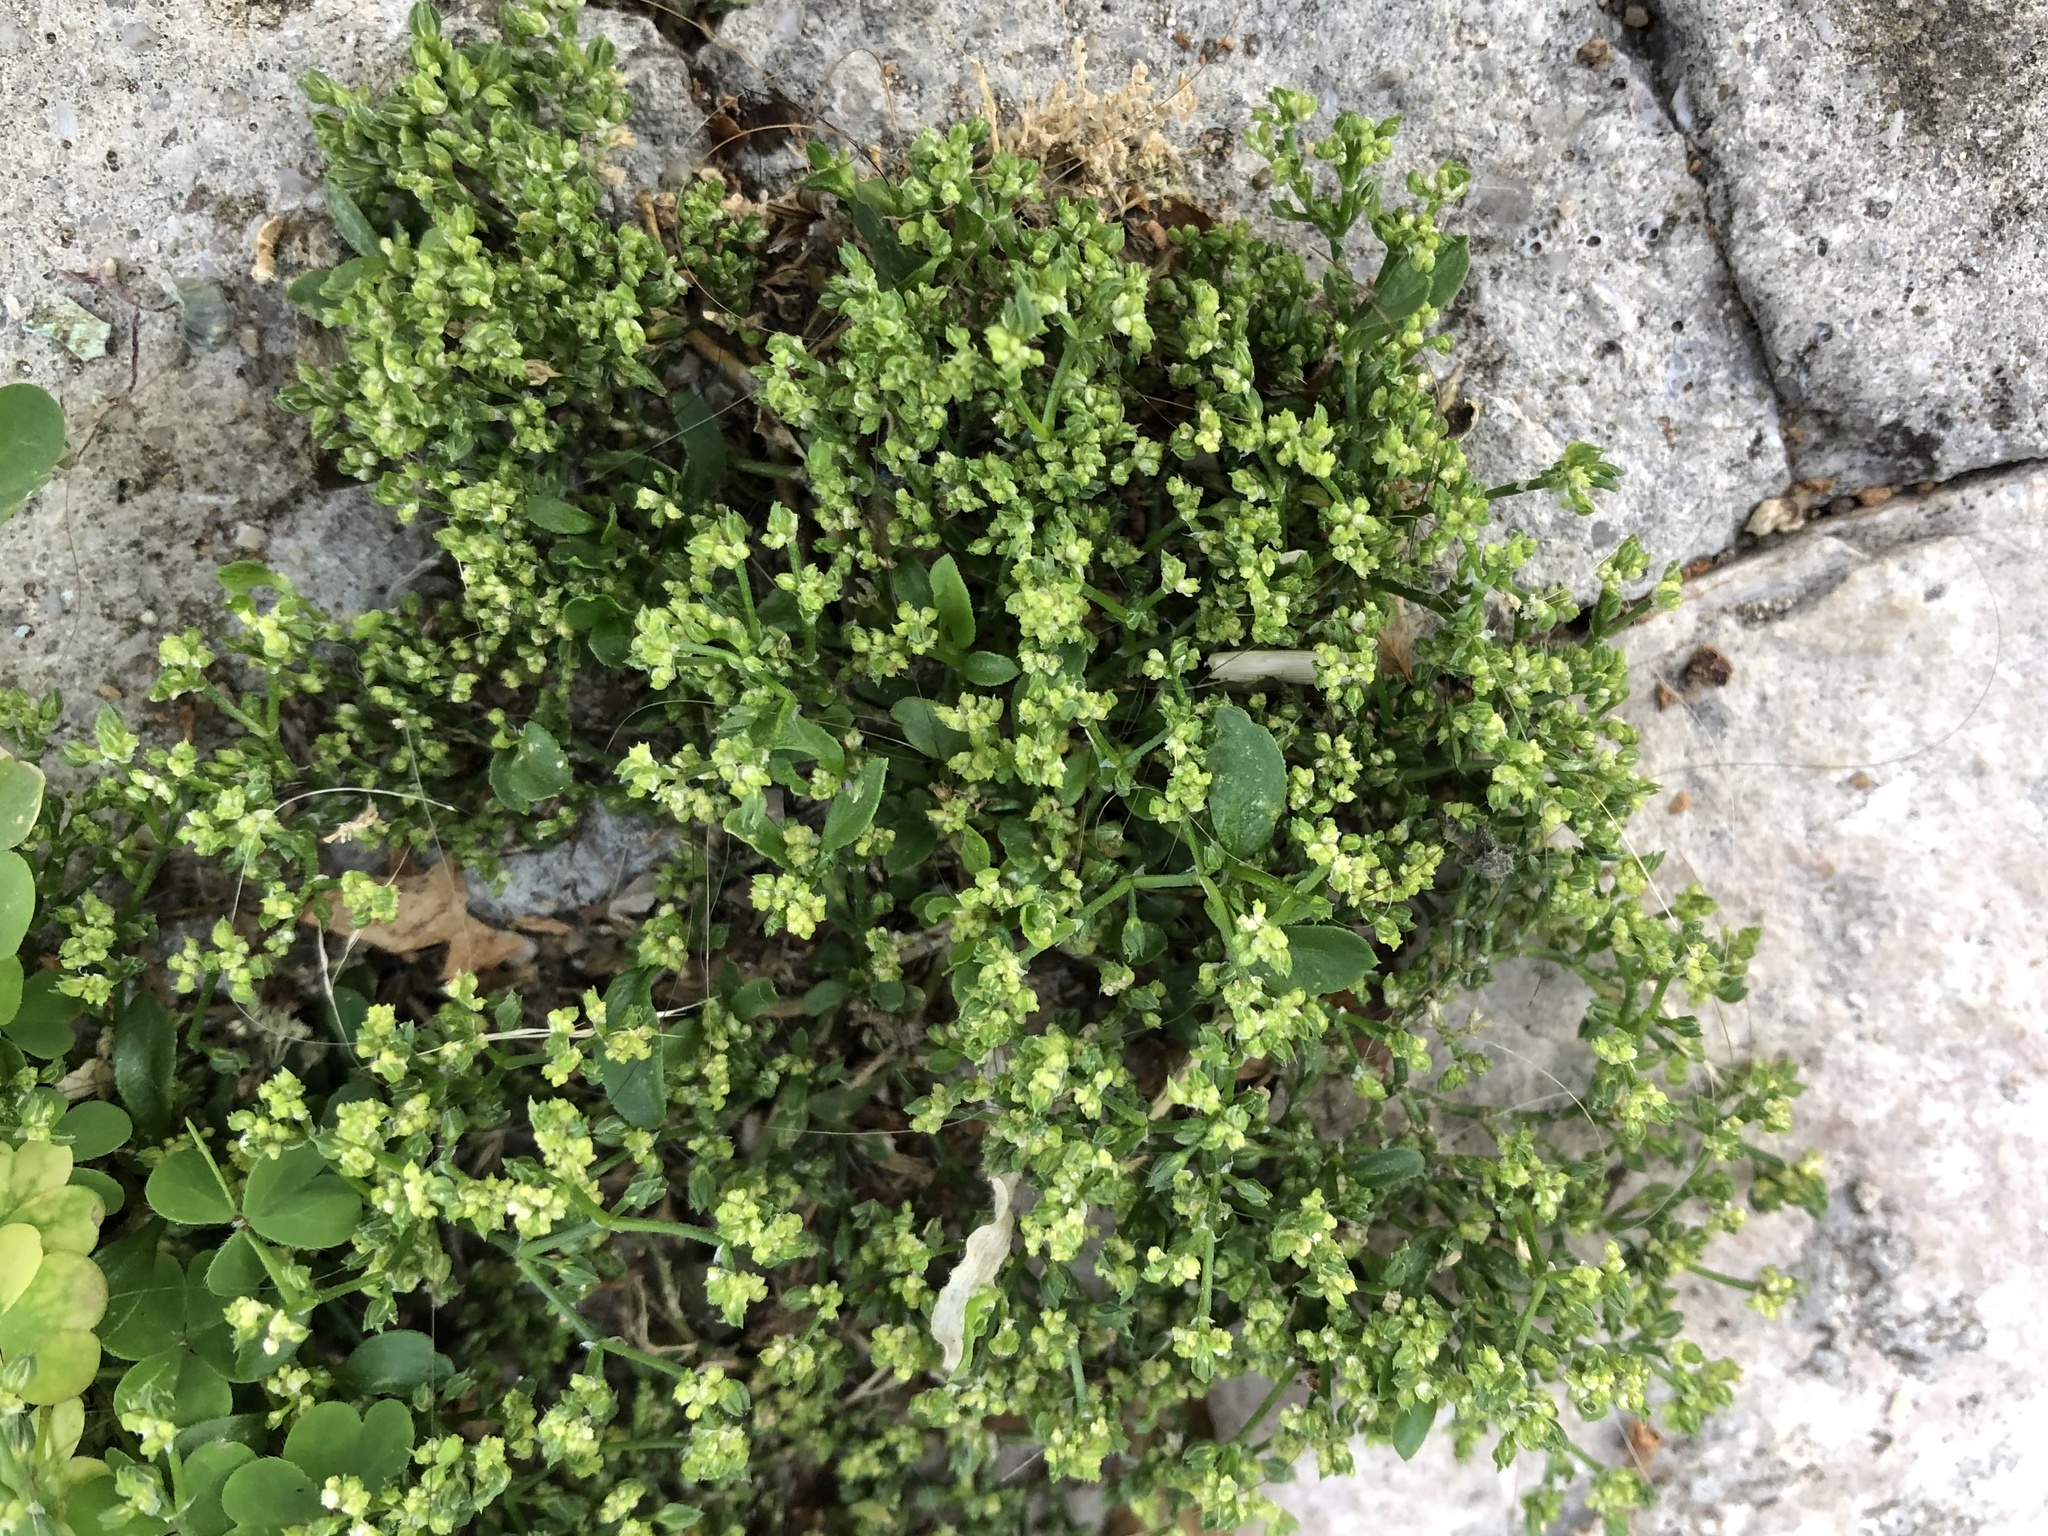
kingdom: Plantae
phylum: Tracheophyta
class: Magnoliopsida
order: Caryophyllales
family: Caryophyllaceae
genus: Polycarpon
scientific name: Polycarpon tetraphyllum
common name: Four-leaved all-seed
